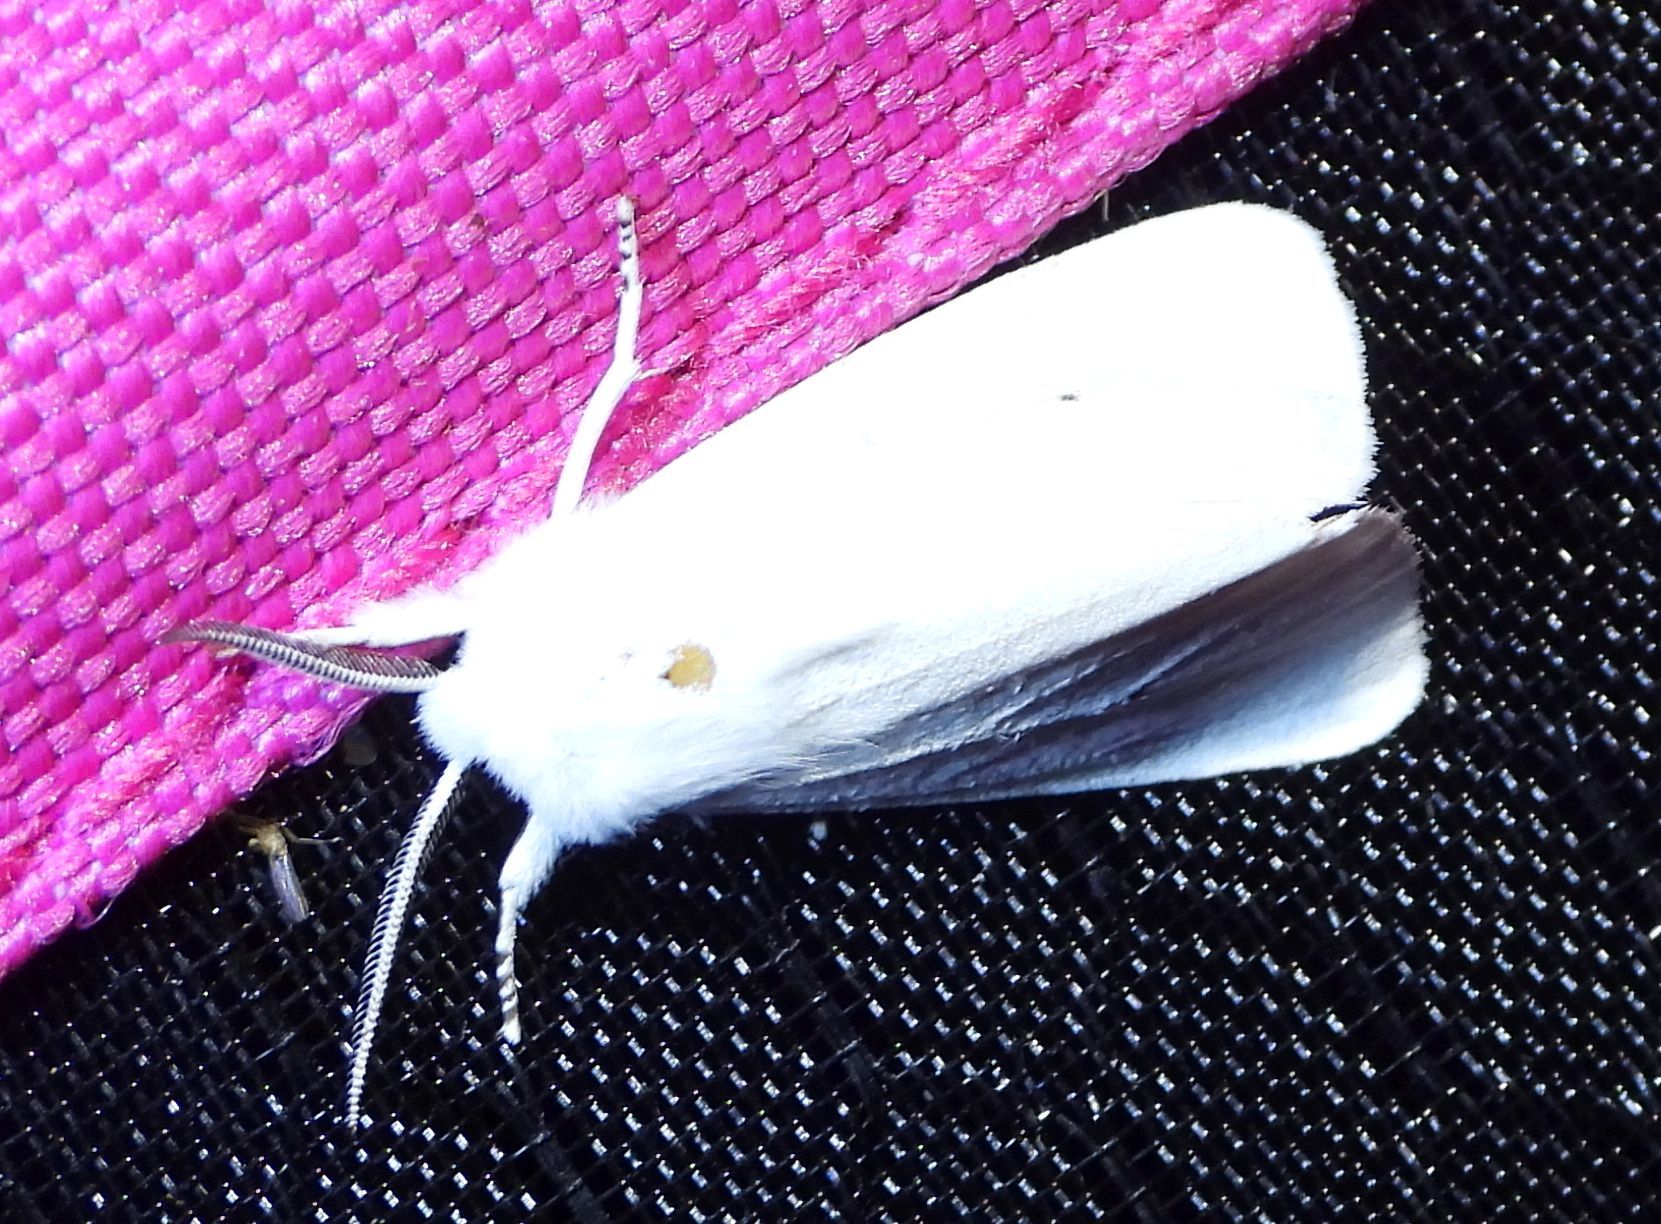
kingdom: Animalia
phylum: Arthropoda
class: Insecta
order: Lepidoptera
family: Erebidae
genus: Spilosoma
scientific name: Spilosoma virginica
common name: Virginia tiger moth
